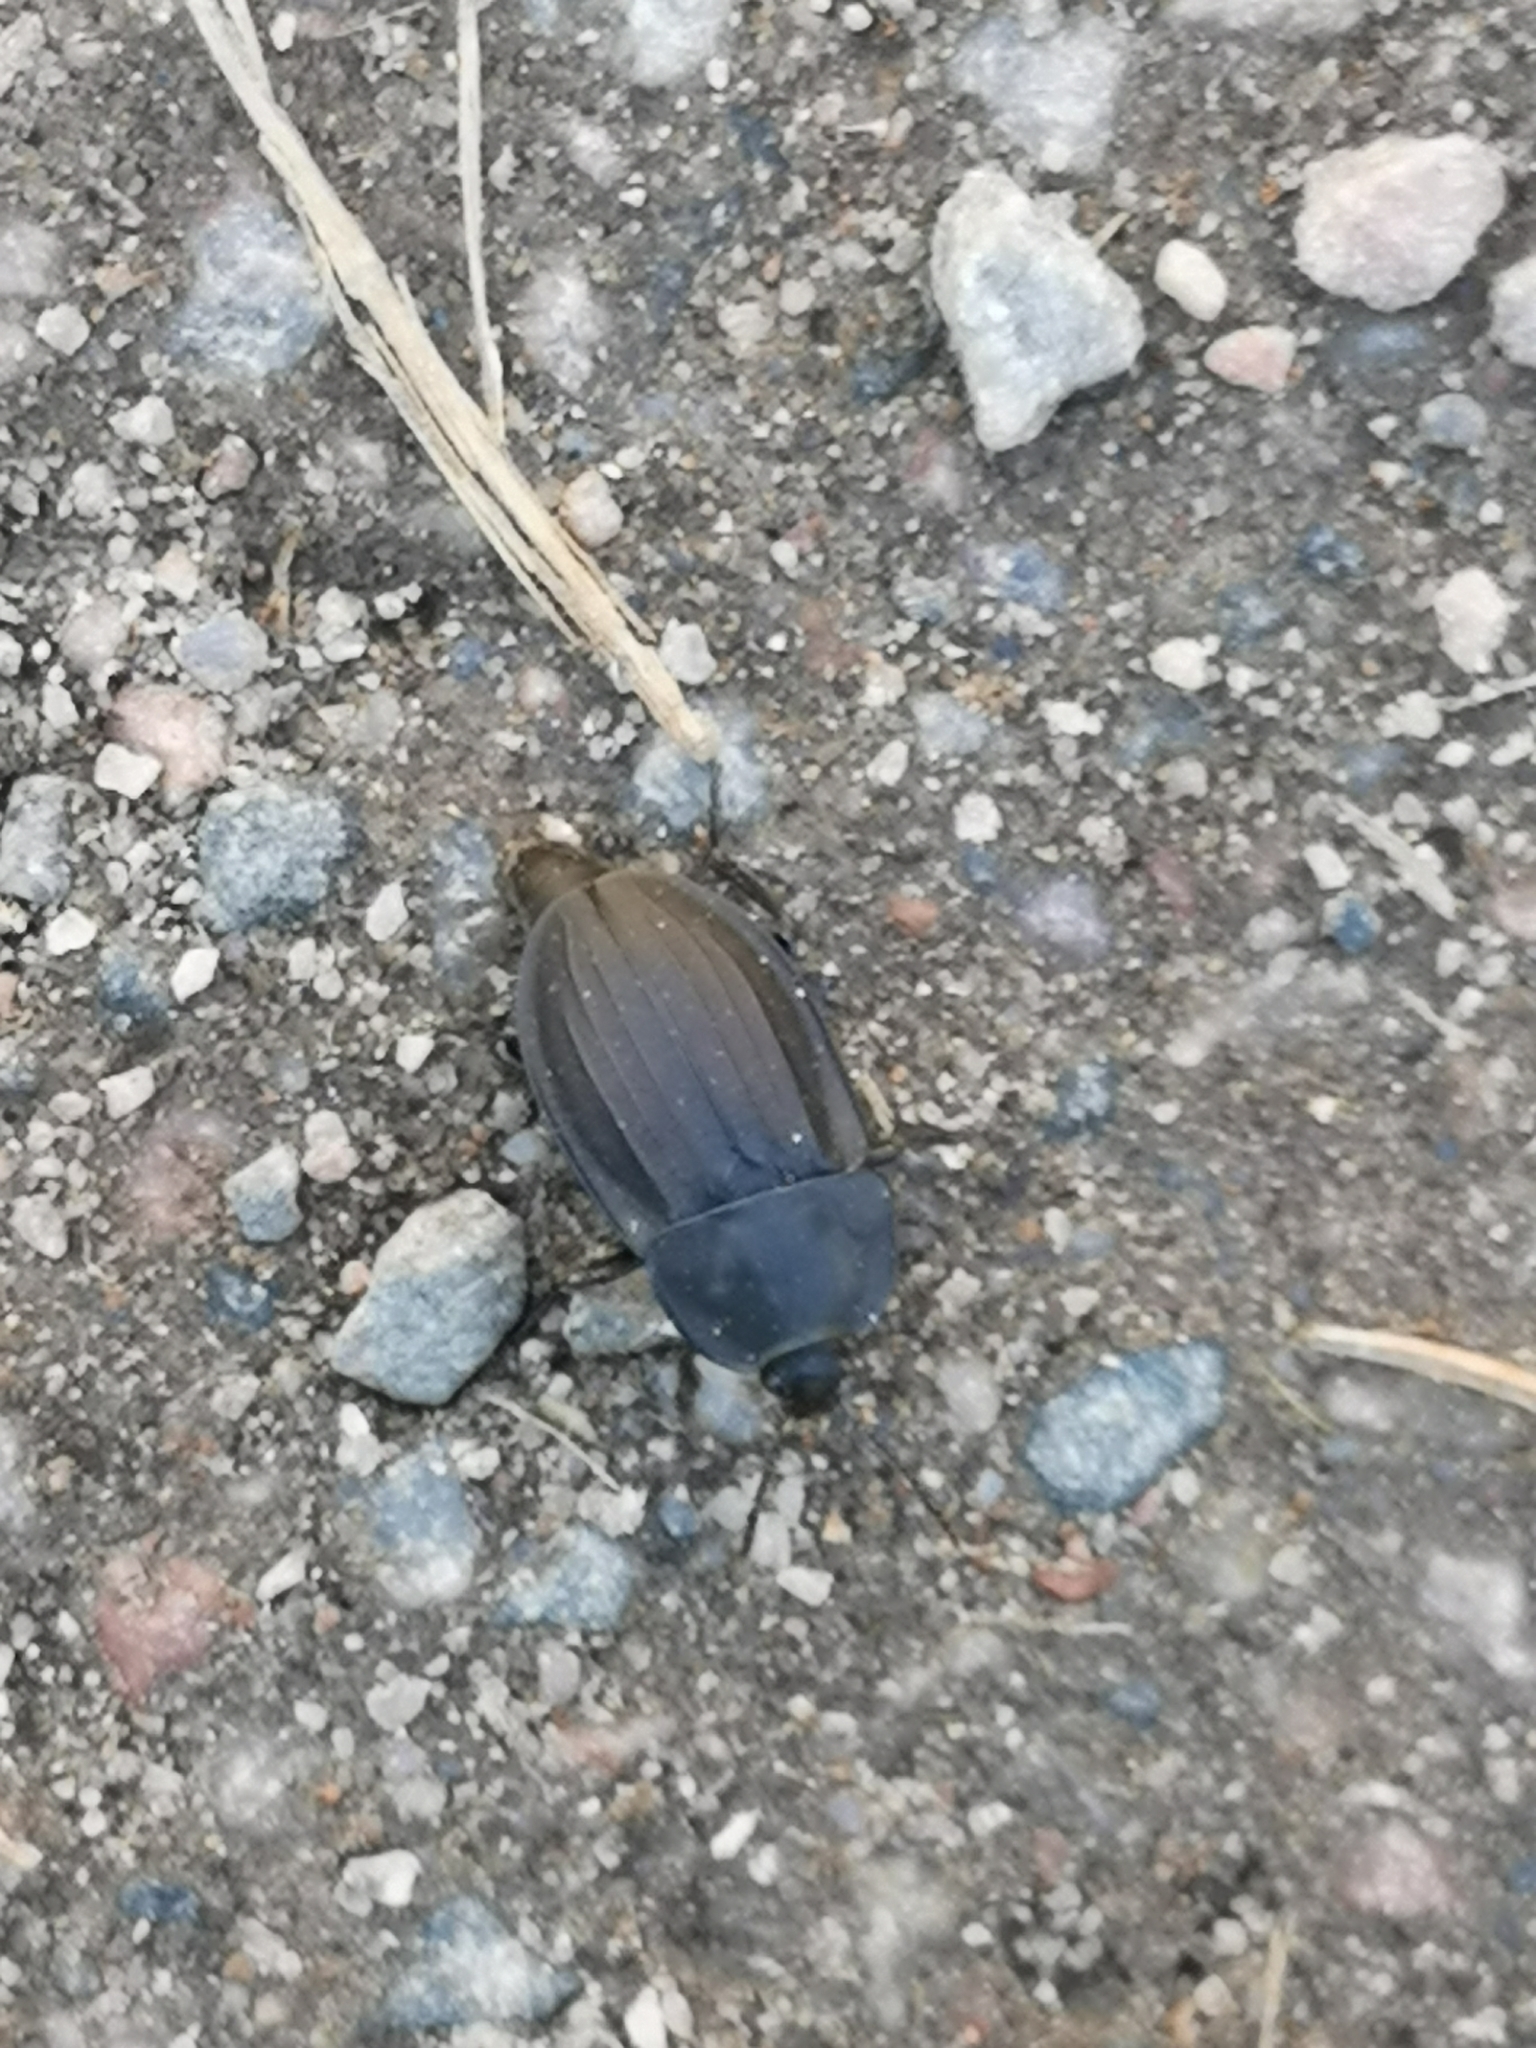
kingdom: Animalia
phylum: Arthropoda
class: Insecta
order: Coleoptera
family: Staphylinidae
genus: Silpha
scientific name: Silpha carinata
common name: Silphid beetle
